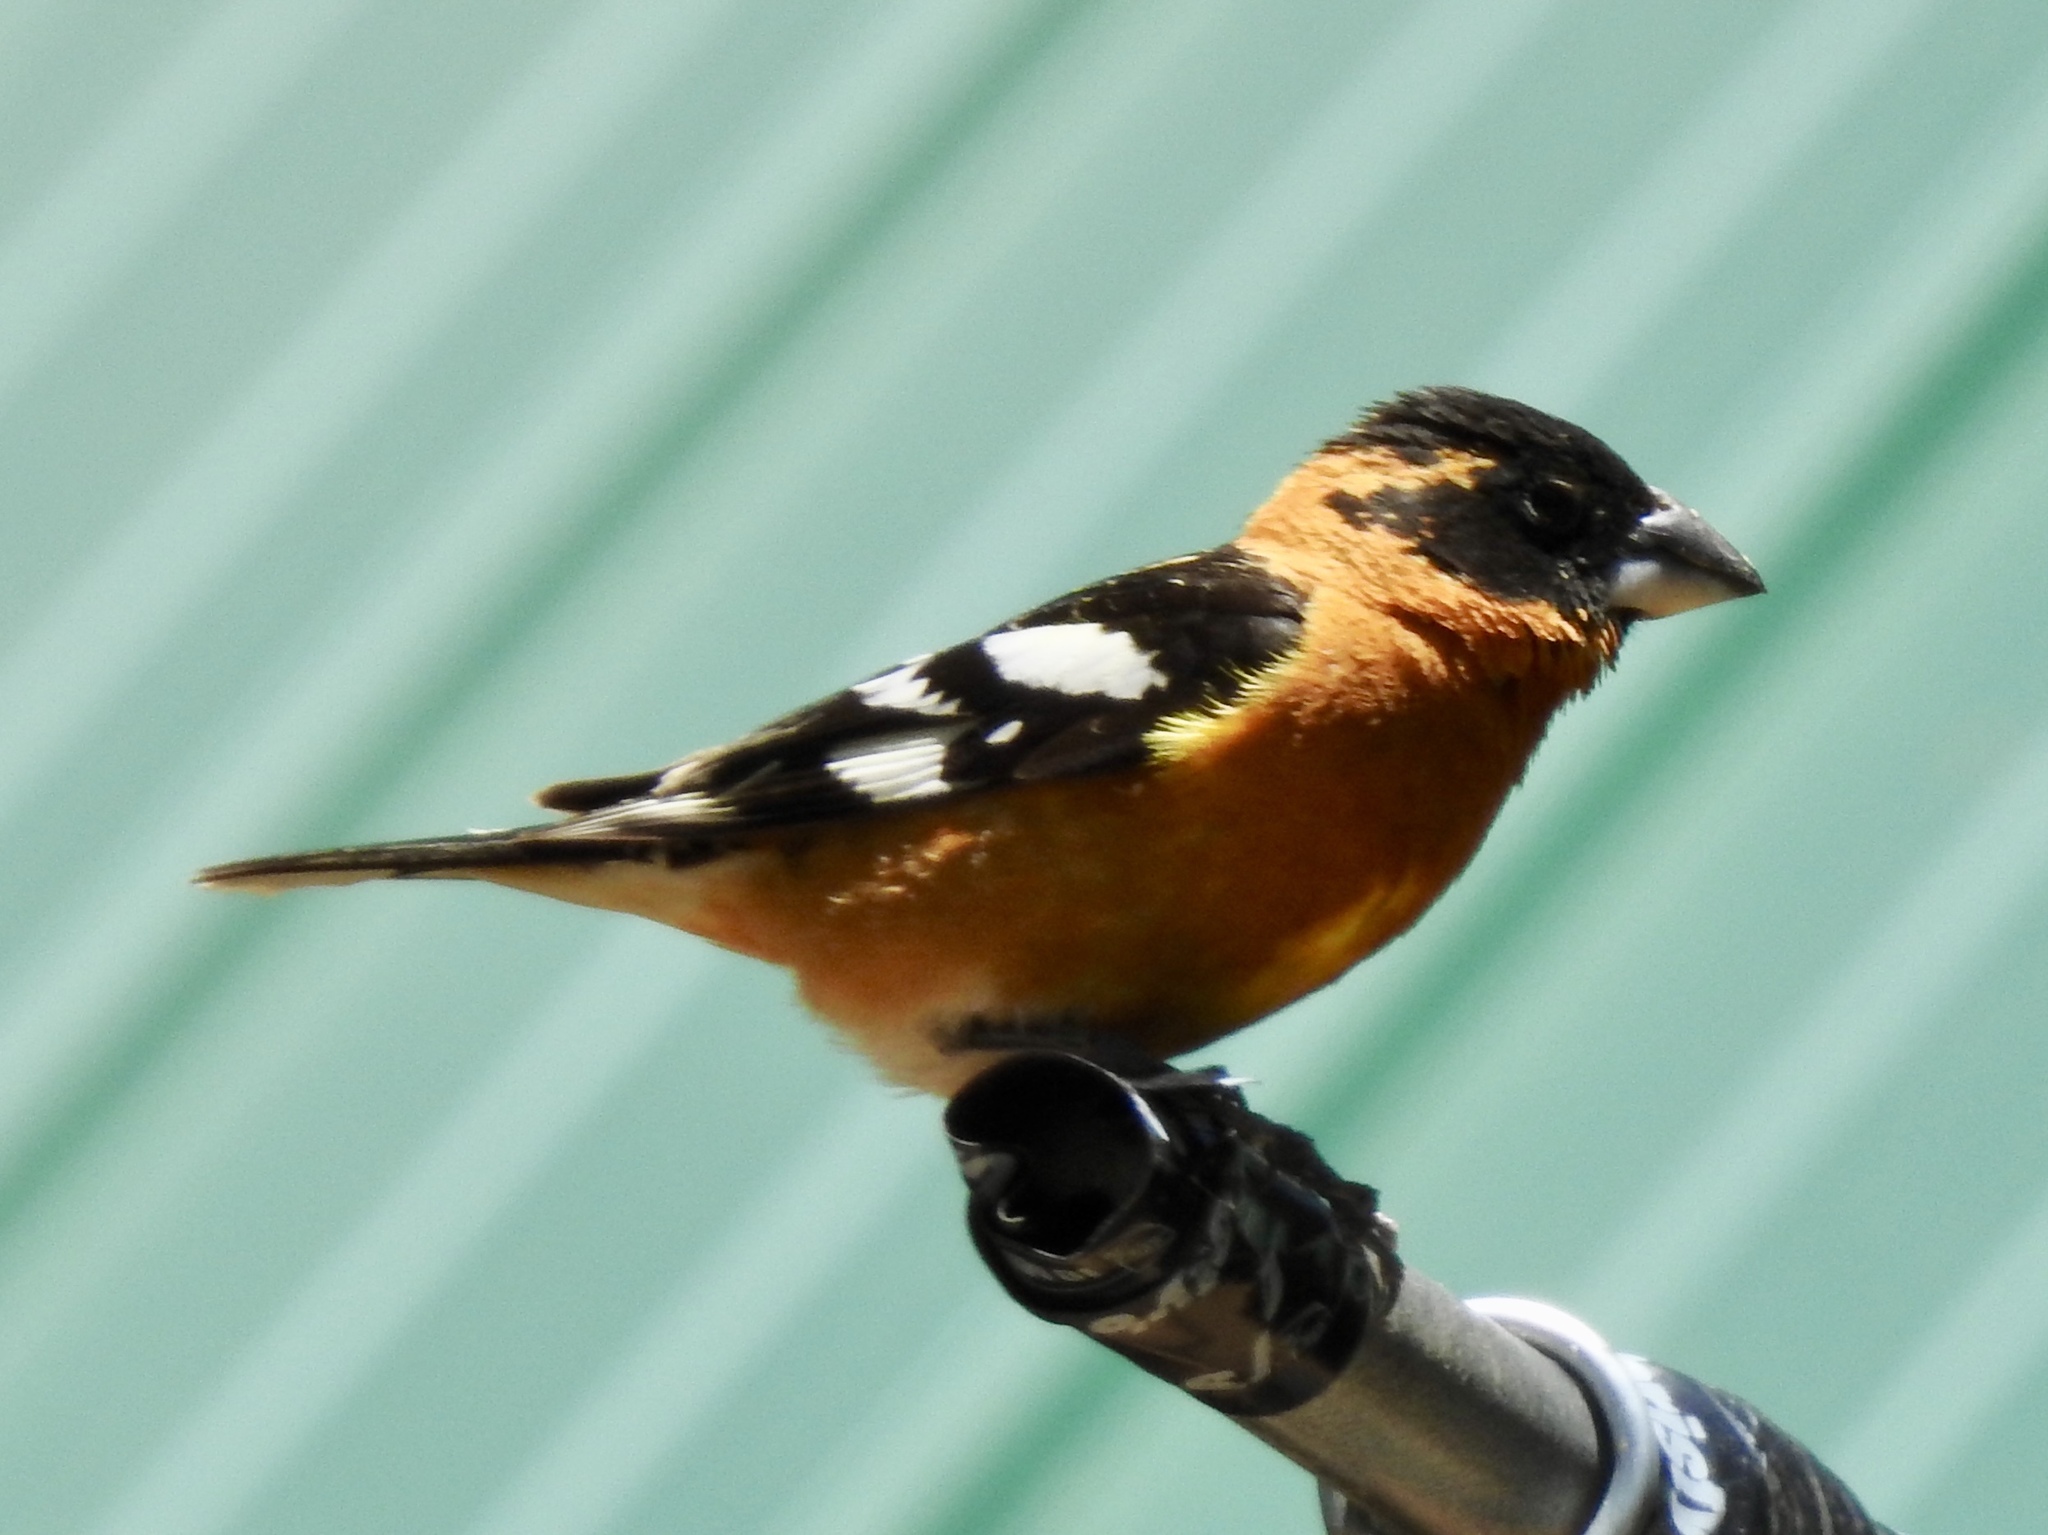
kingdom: Animalia
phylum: Chordata
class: Aves
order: Passeriformes
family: Cardinalidae
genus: Pheucticus
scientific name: Pheucticus melanocephalus
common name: Black-headed grosbeak
